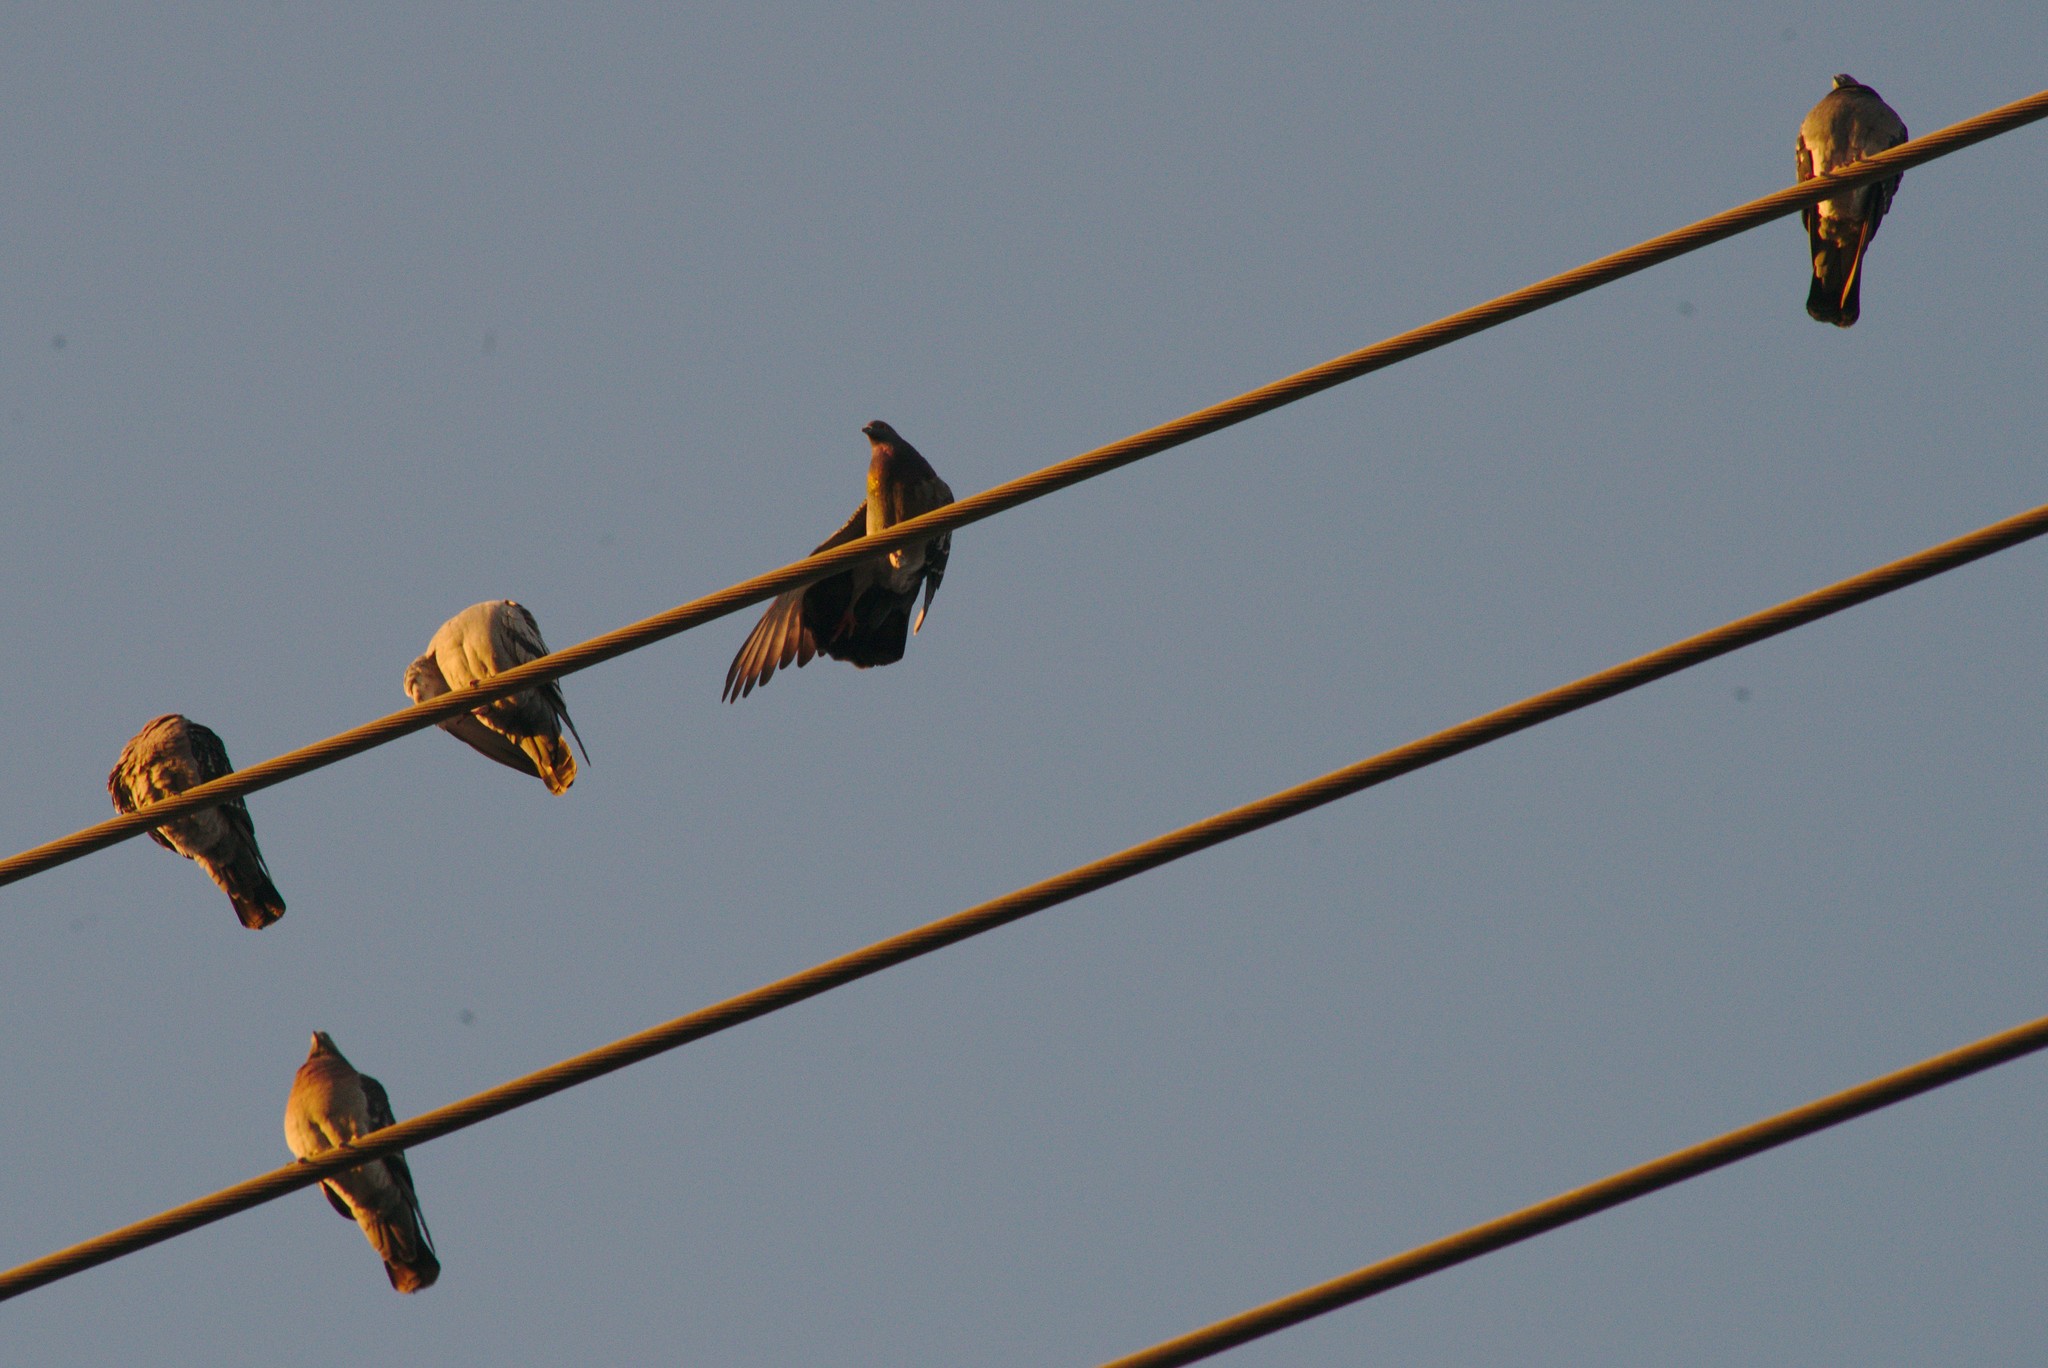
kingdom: Animalia
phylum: Chordata
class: Aves
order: Columbiformes
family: Columbidae
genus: Columba
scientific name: Columba livia
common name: Rock pigeon
